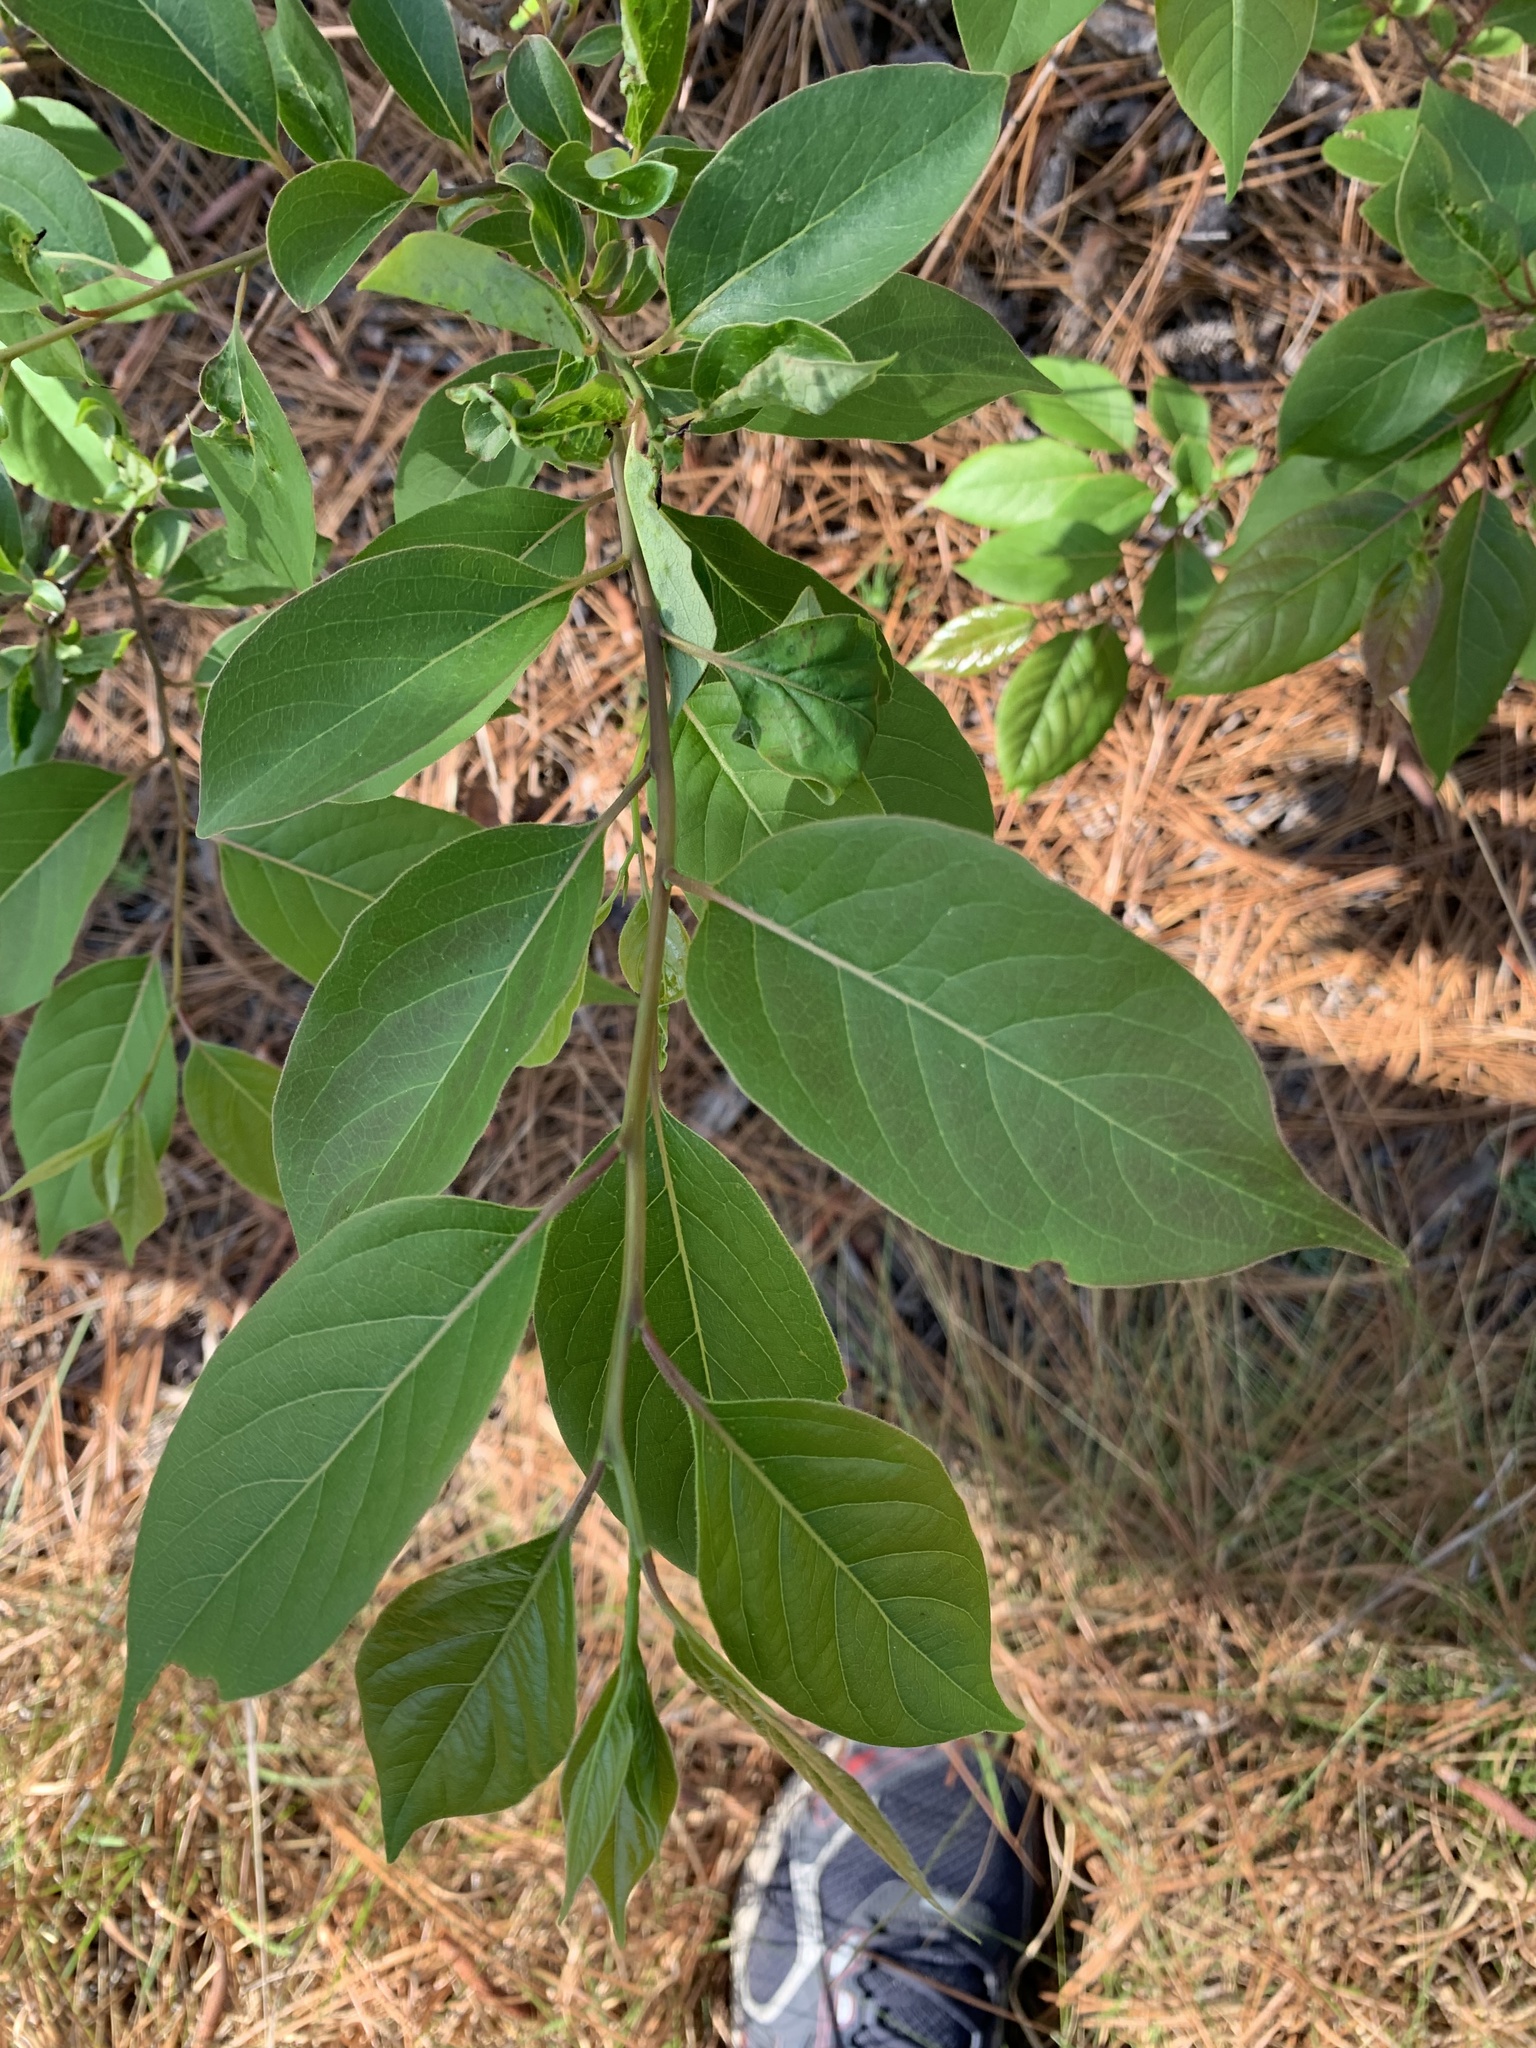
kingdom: Plantae
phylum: Tracheophyta
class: Magnoliopsida
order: Ericales
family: Ebenaceae
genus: Diospyros
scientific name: Diospyros virginiana
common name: Persimmon
